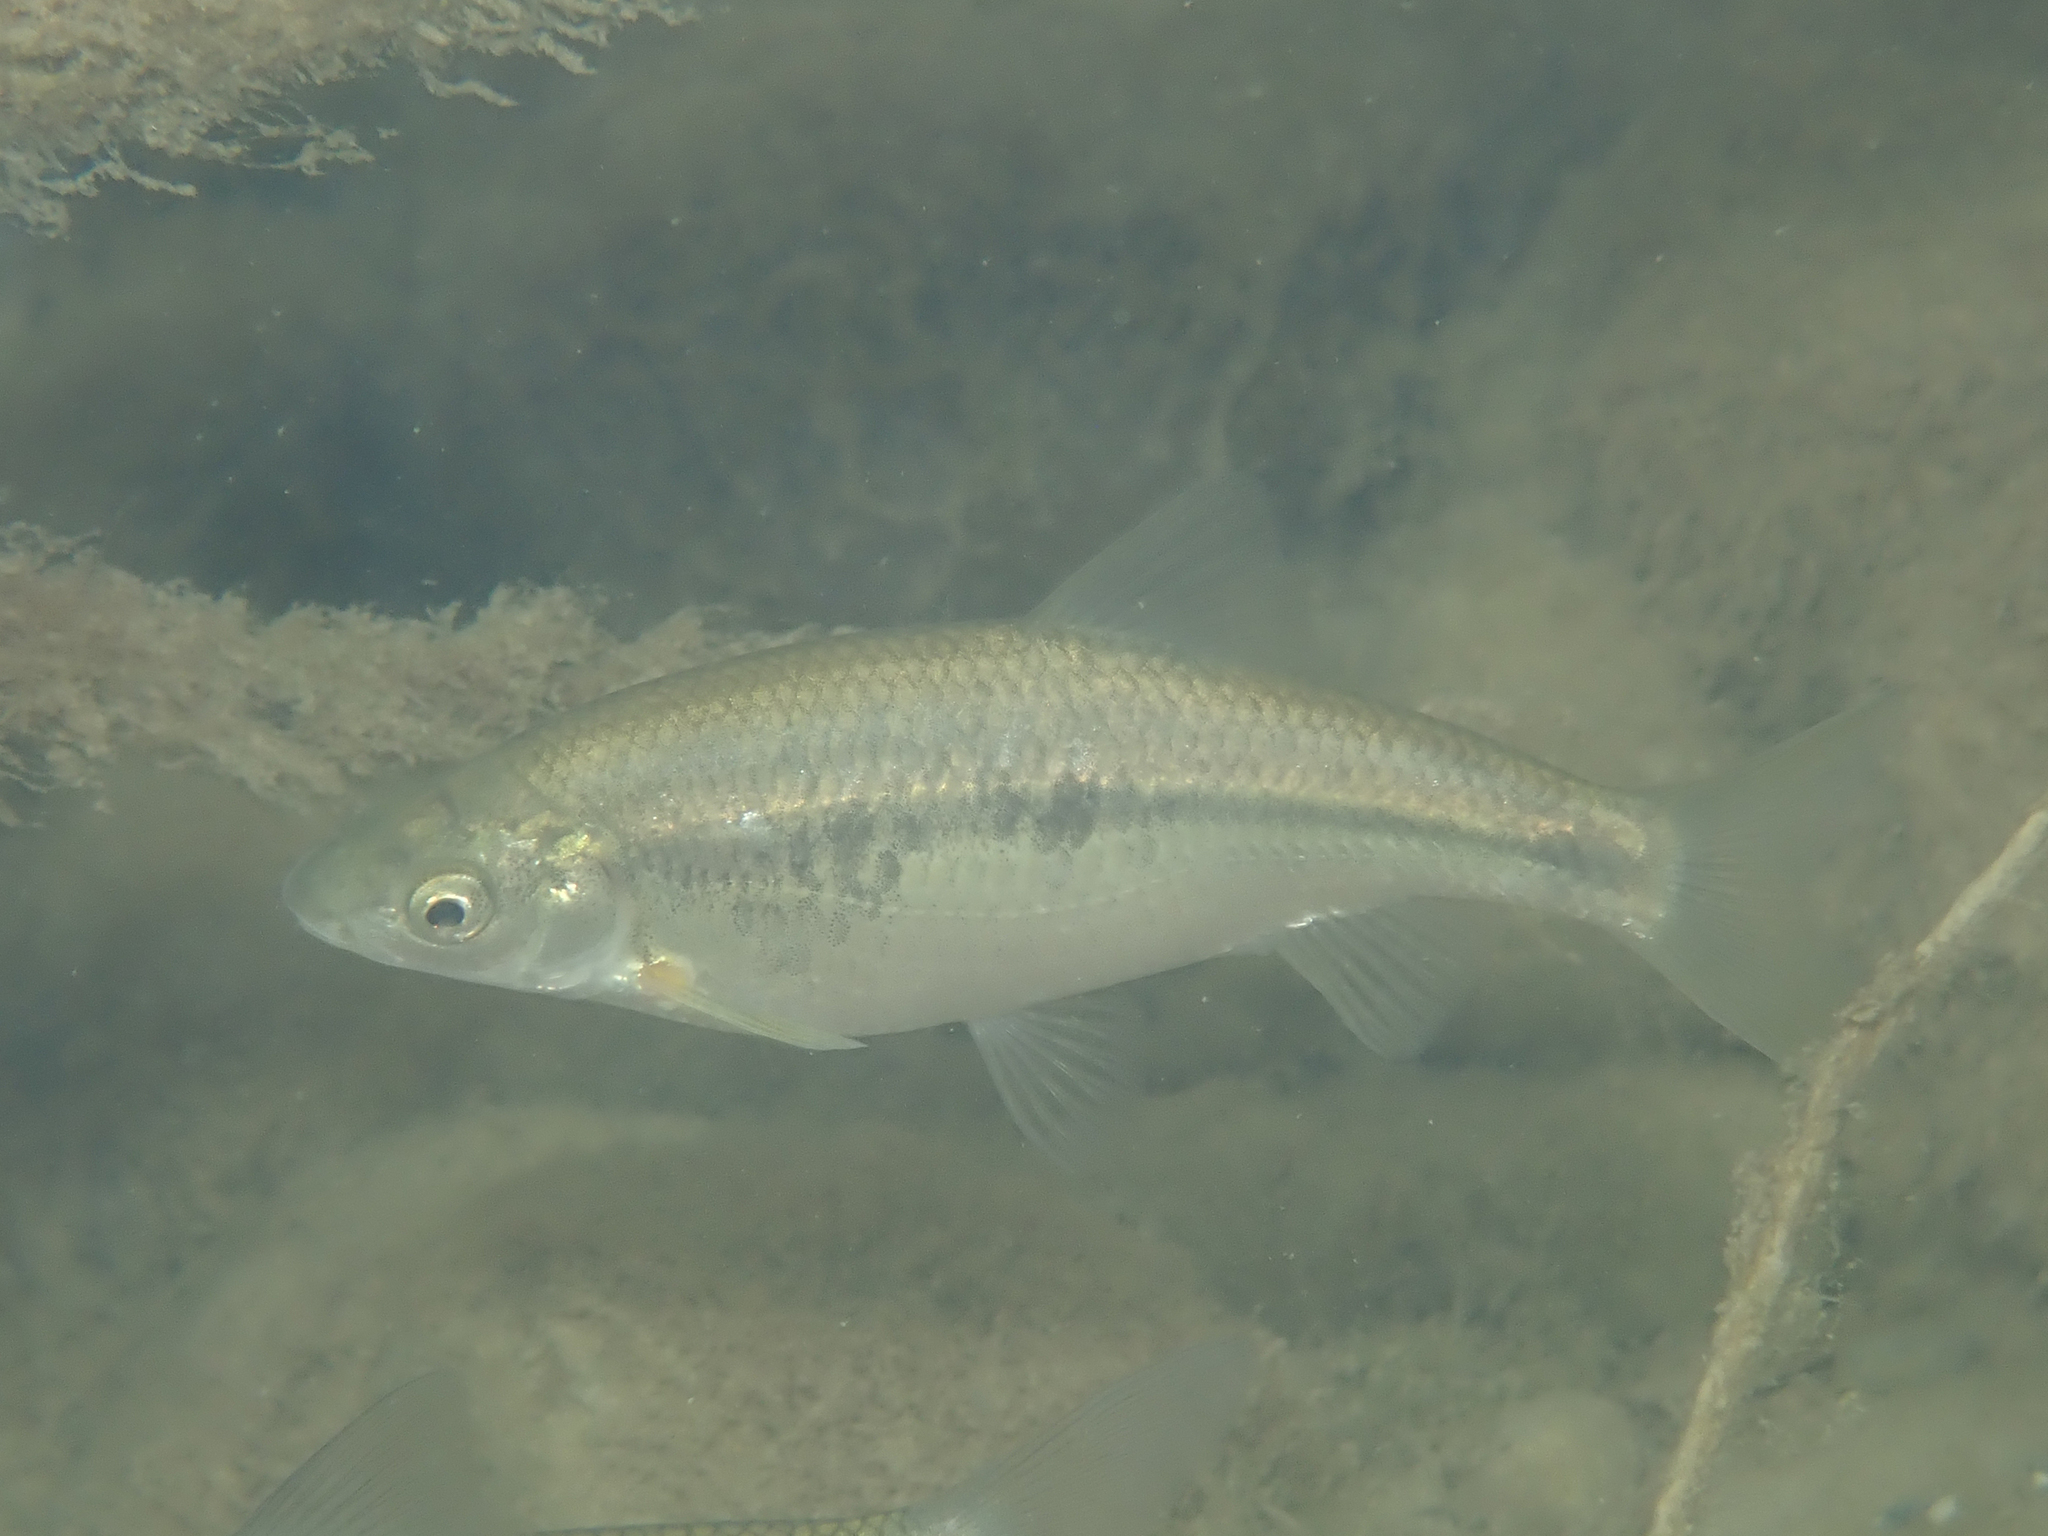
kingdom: Animalia
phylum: Chordata
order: Cypriniformes
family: Cyprinidae
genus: Pachychilon
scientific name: Pachychilon pictum
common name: Albanian roach
